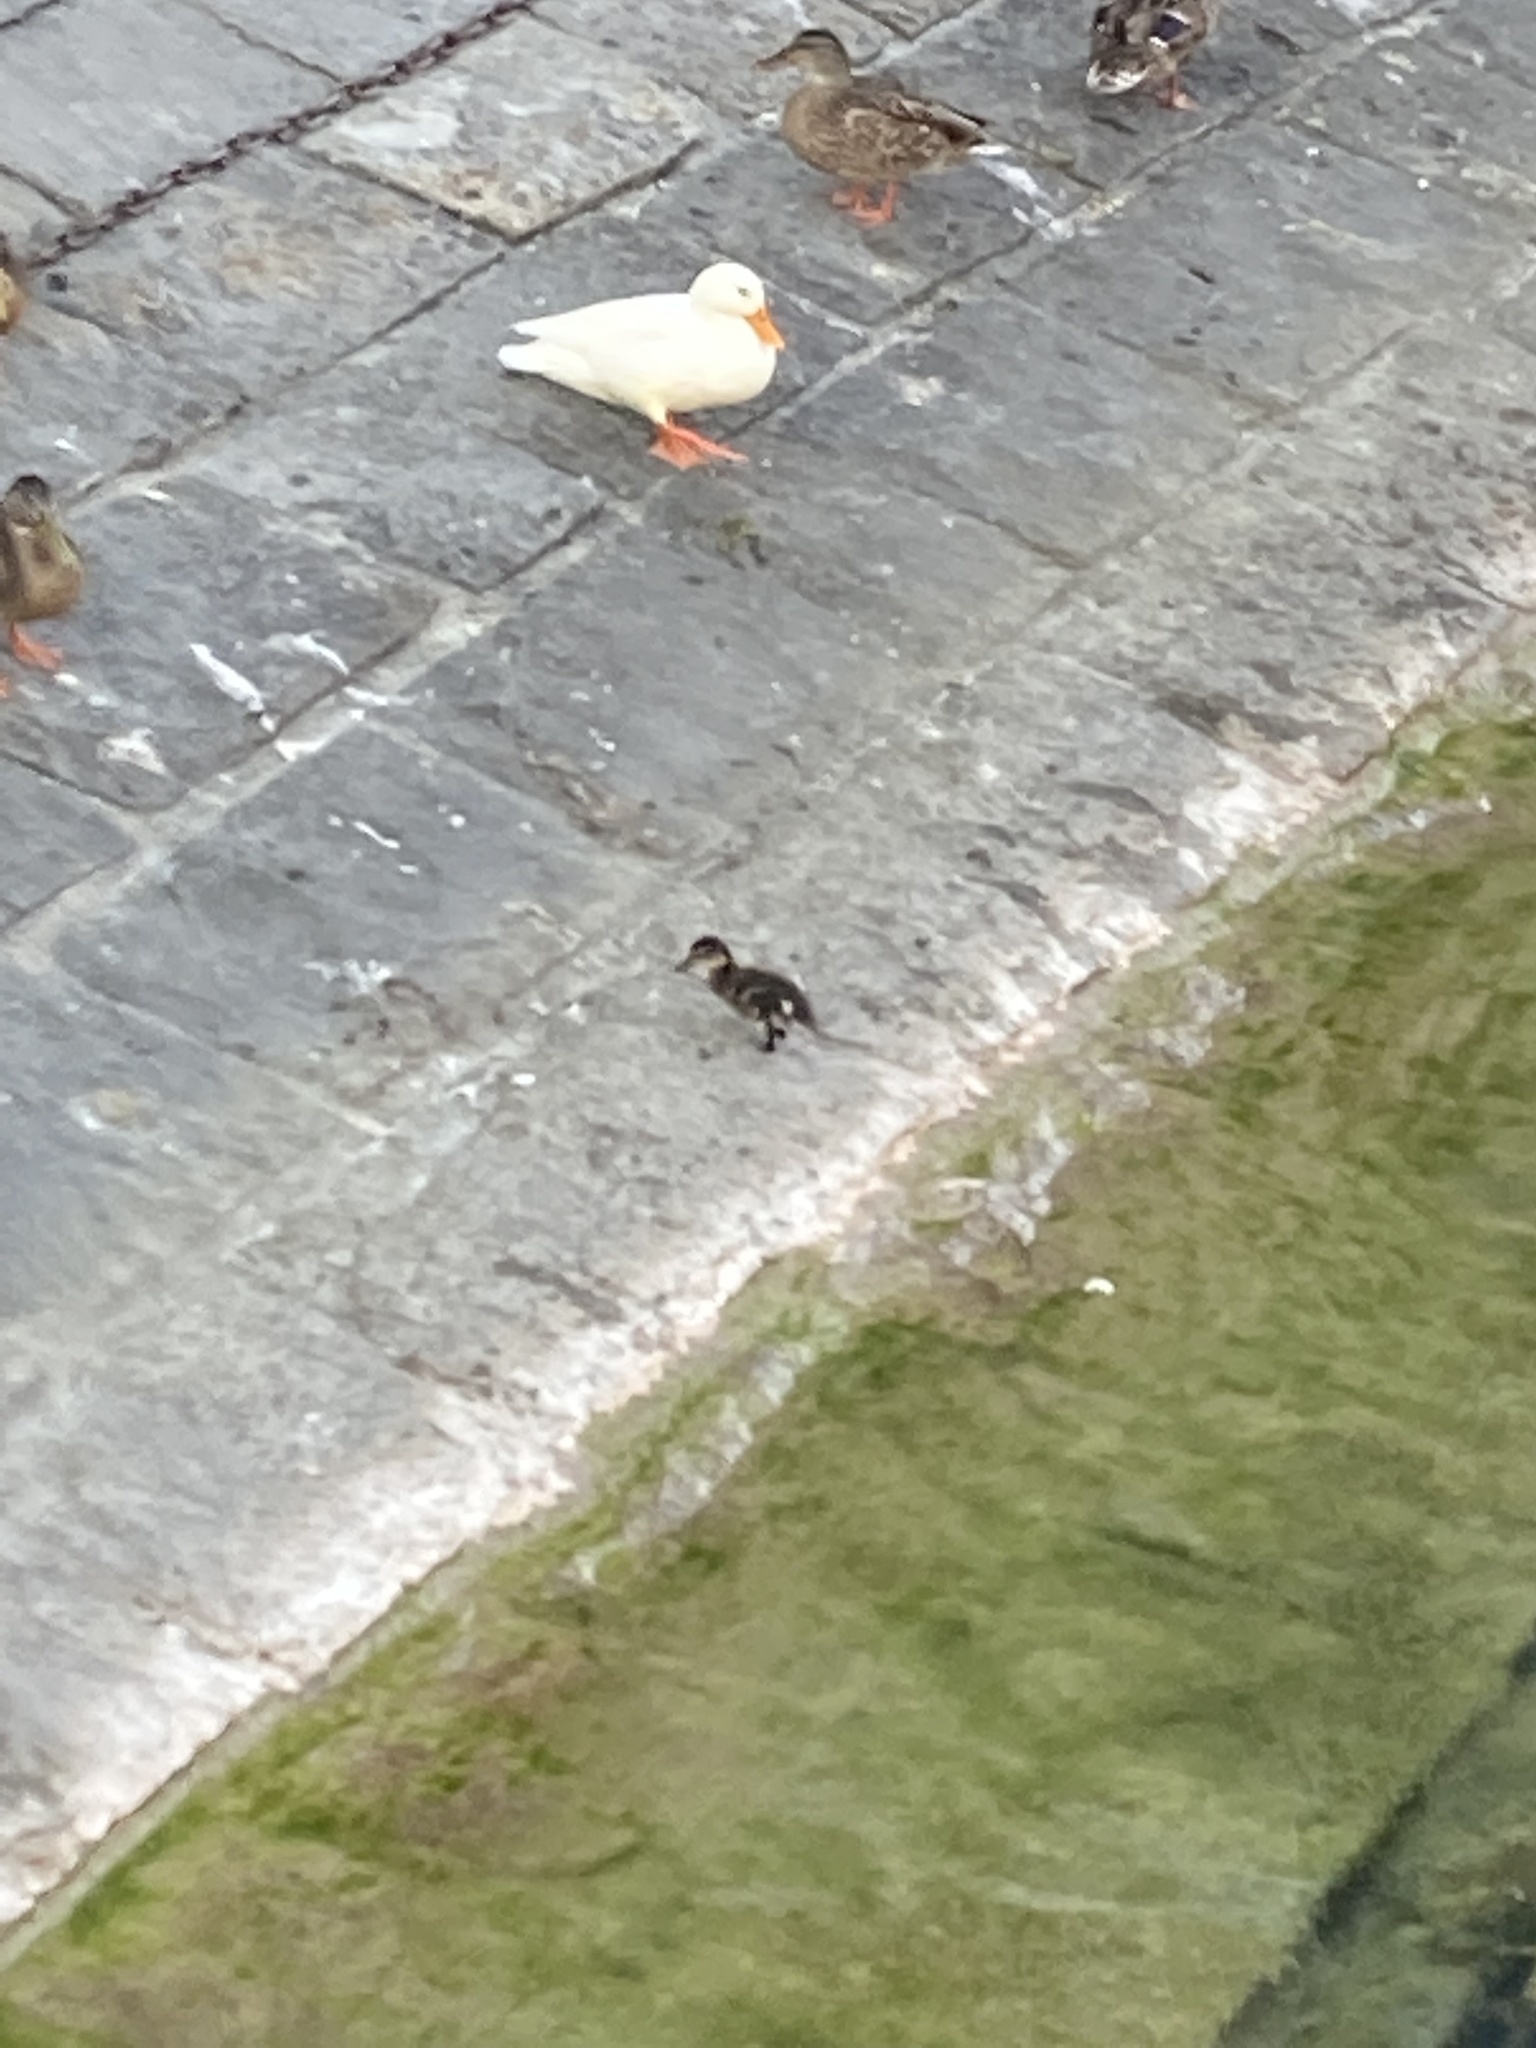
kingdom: Animalia
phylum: Chordata
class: Aves
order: Anseriformes
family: Anatidae
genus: Anas
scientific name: Anas platyrhynchos
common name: Mallard
